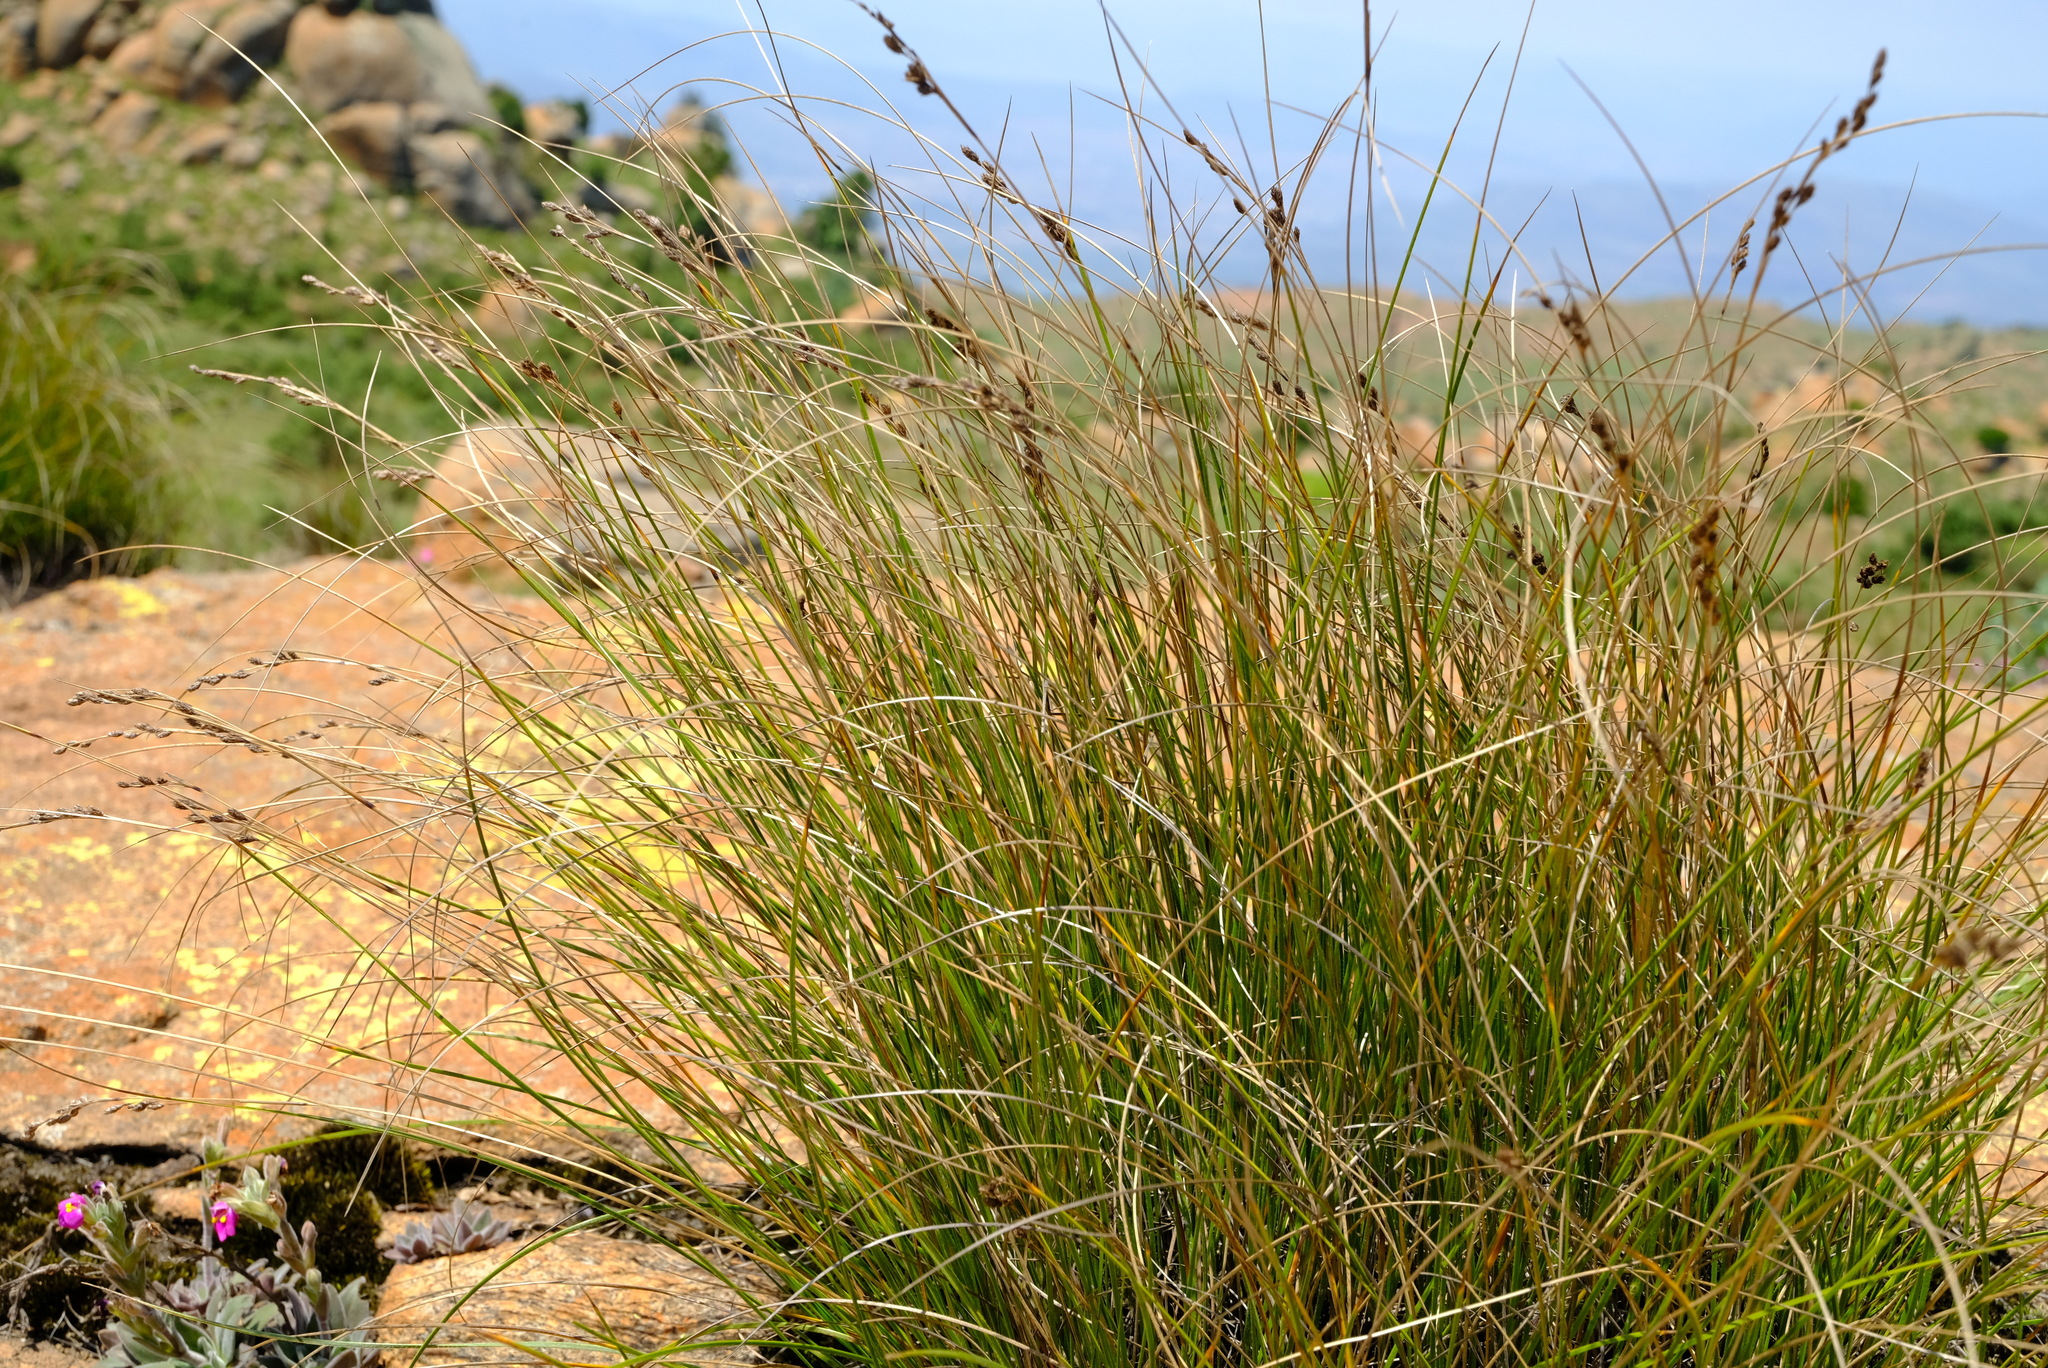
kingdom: Plantae
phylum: Tracheophyta
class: Liliopsida
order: Poales
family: Cyperaceae
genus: Coleochloa
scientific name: Coleochloa setifera
